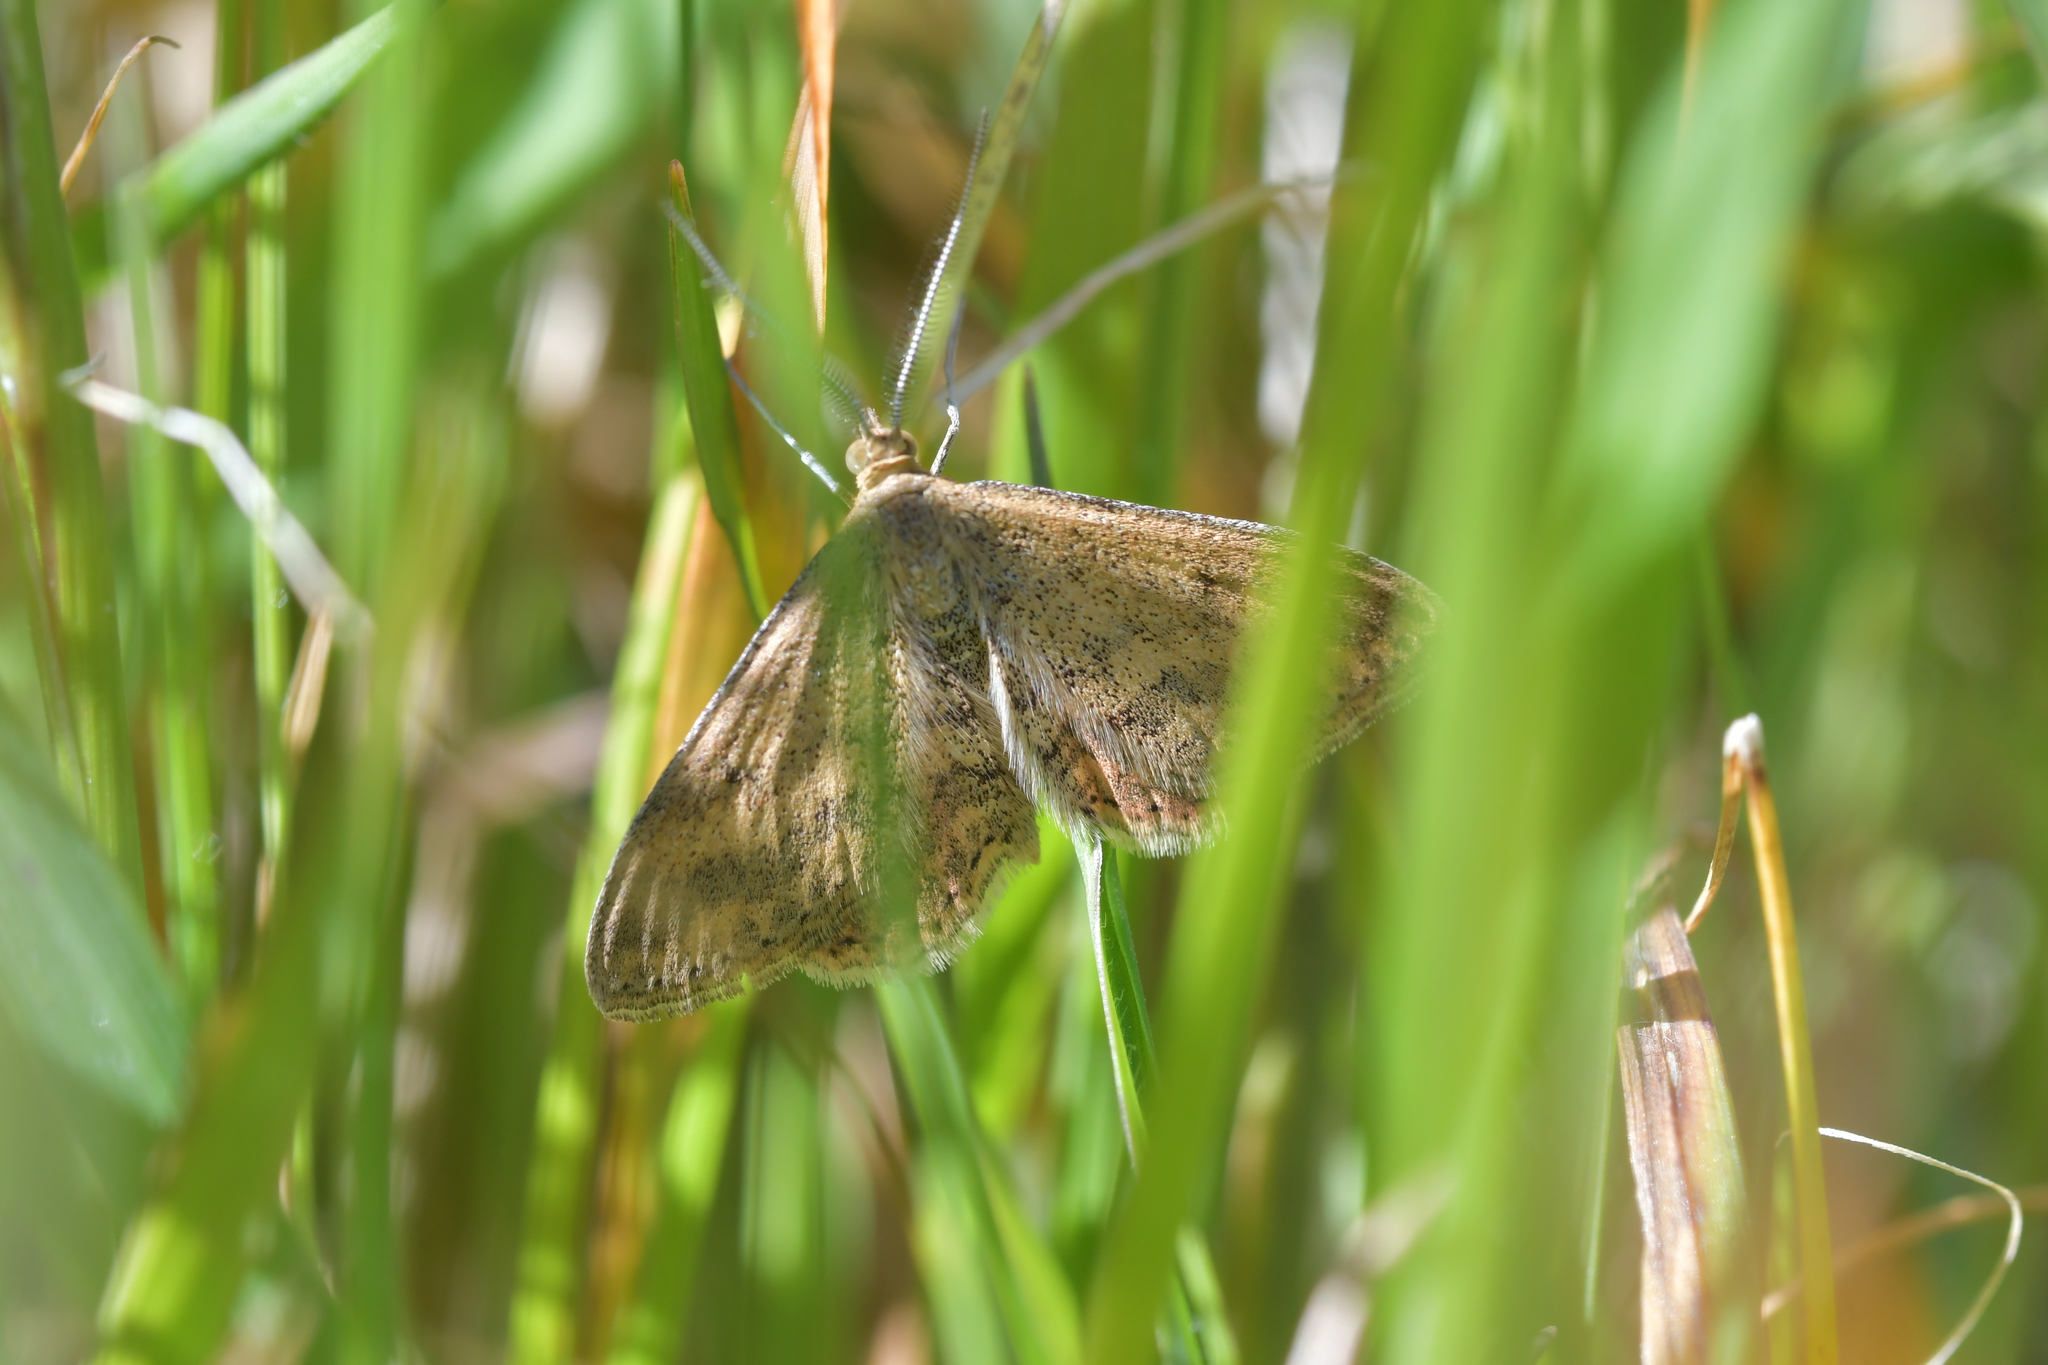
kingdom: Animalia
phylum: Arthropoda
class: Insecta
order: Lepidoptera
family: Geometridae
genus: Scopula
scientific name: Scopula rubraria
